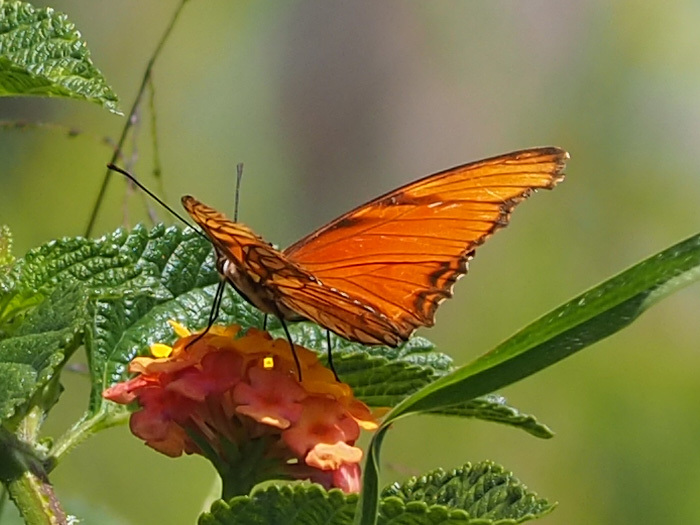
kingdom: Animalia
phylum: Arthropoda
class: Insecta
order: Lepidoptera
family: Nymphalidae
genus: Dione
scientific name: Dione juno
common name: Juno silverspot
